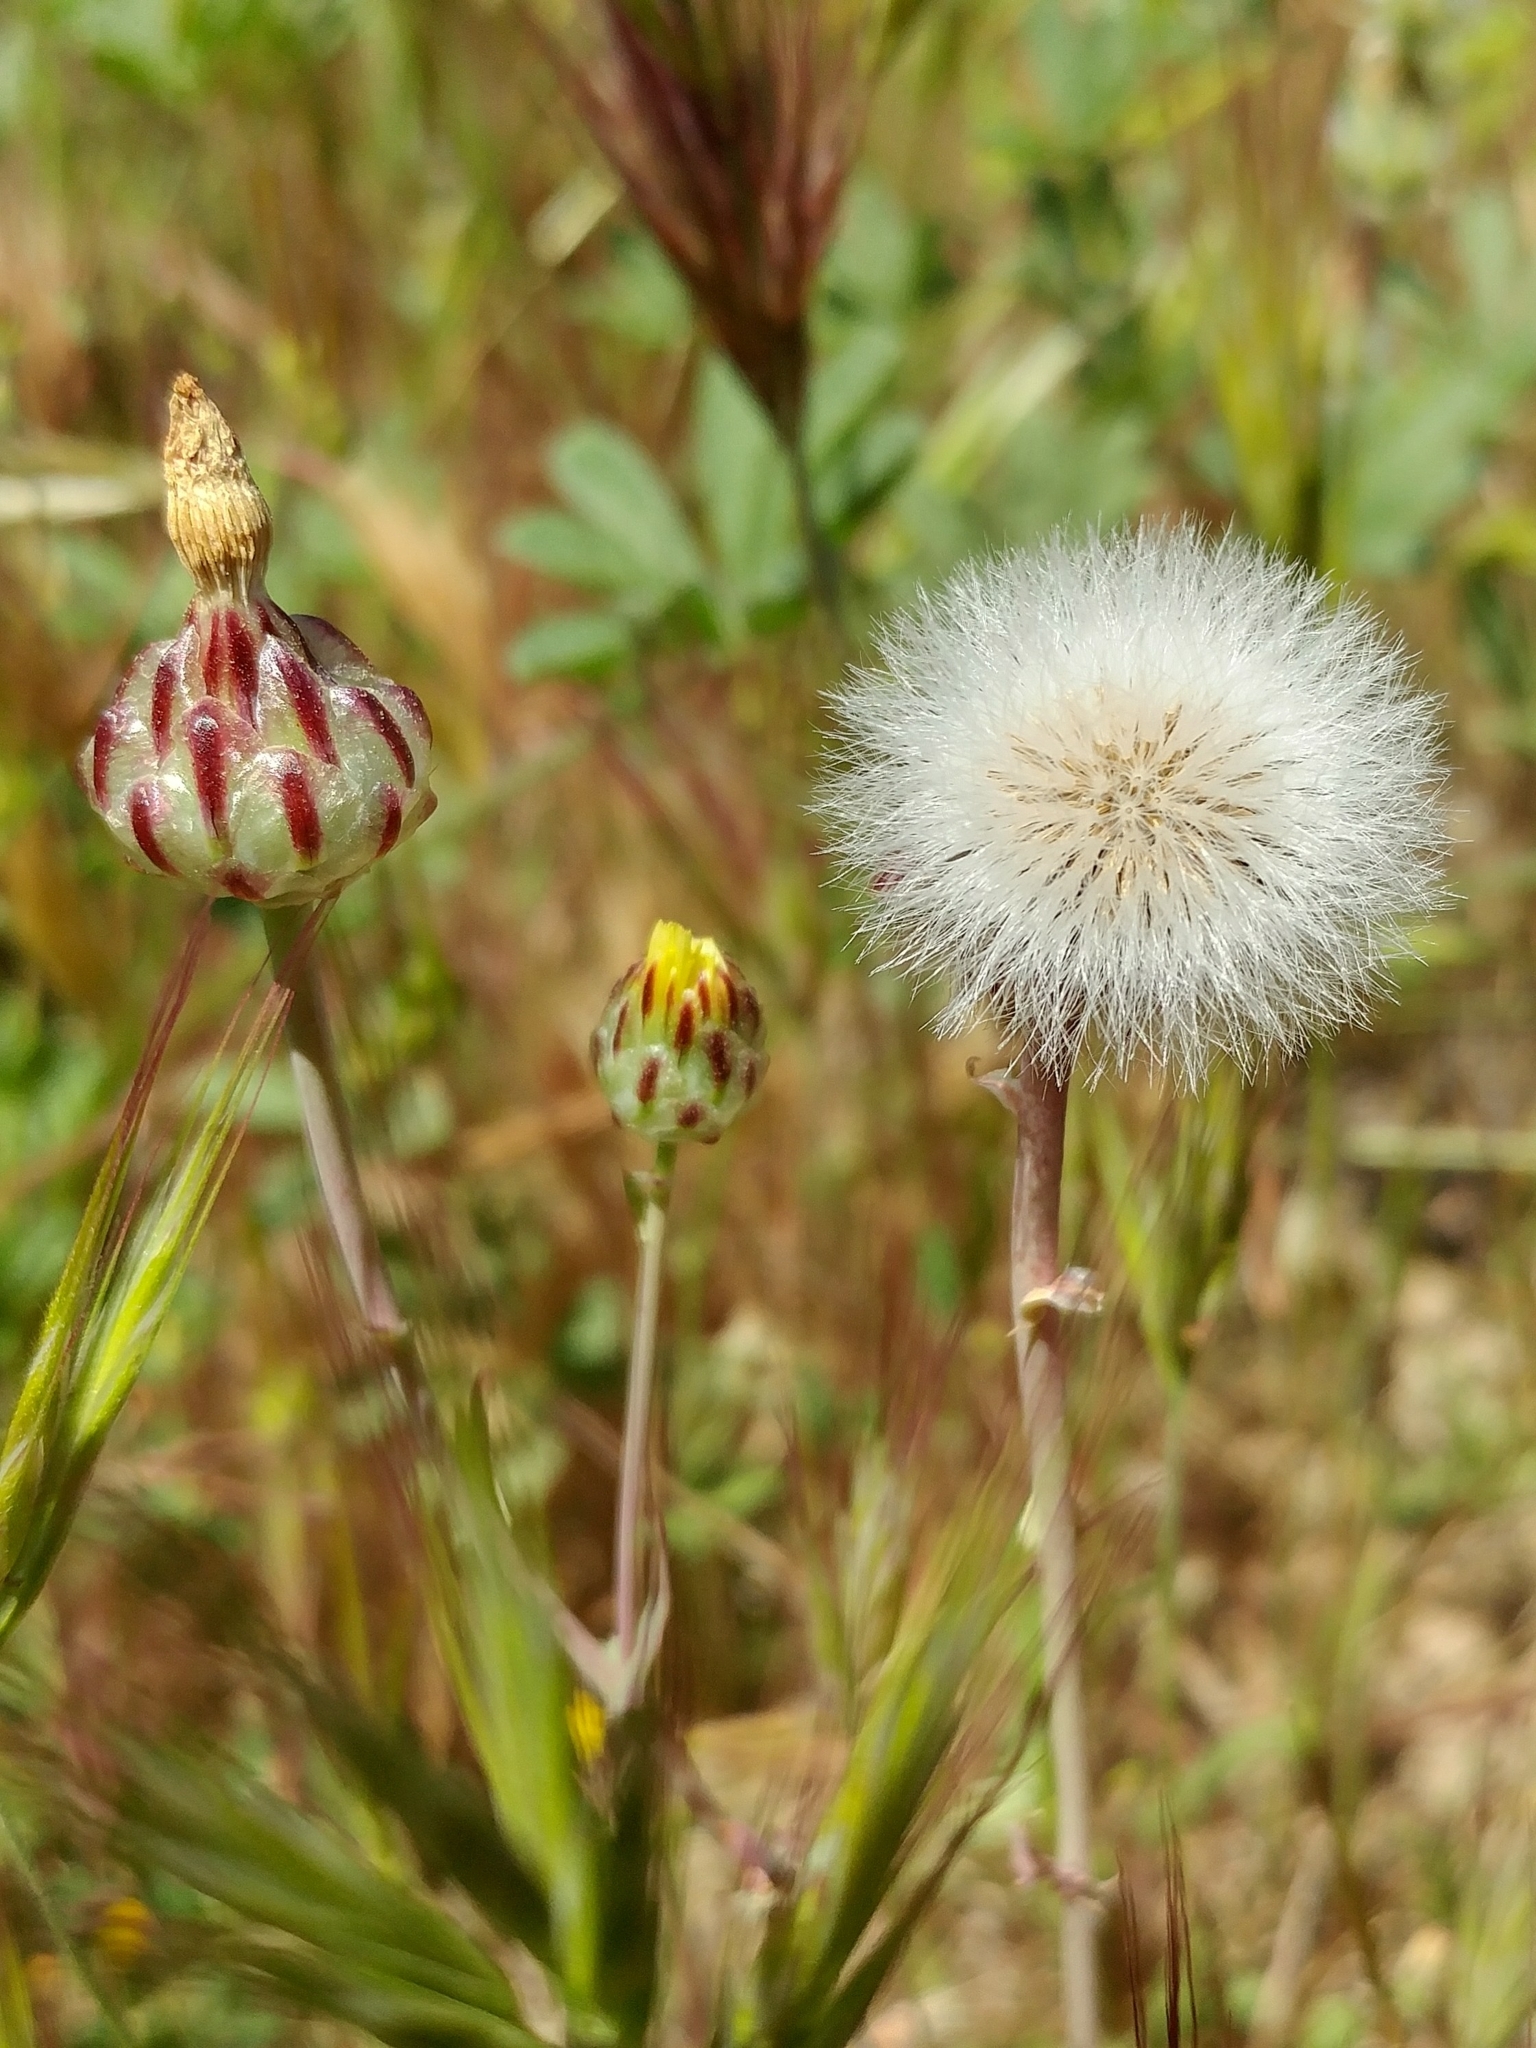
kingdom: Plantae
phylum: Tracheophyta
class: Magnoliopsida
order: Asterales
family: Asteraceae
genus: Malacothrix
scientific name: Malacothrix coulteri
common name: Snake's-head
